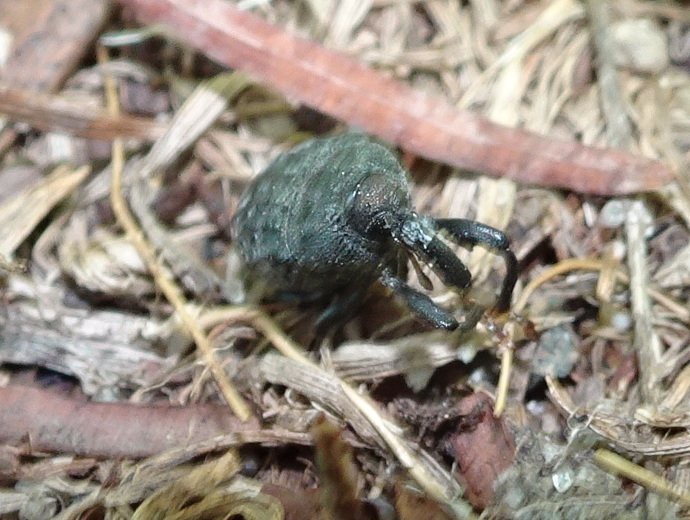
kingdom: Animalia
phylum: Arthropoda
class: Insecta
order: Coleoptera
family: Curculionidae
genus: Rhyssomatus
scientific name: Rhyssomatus lineaticollis
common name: Milkweed stem weevil
